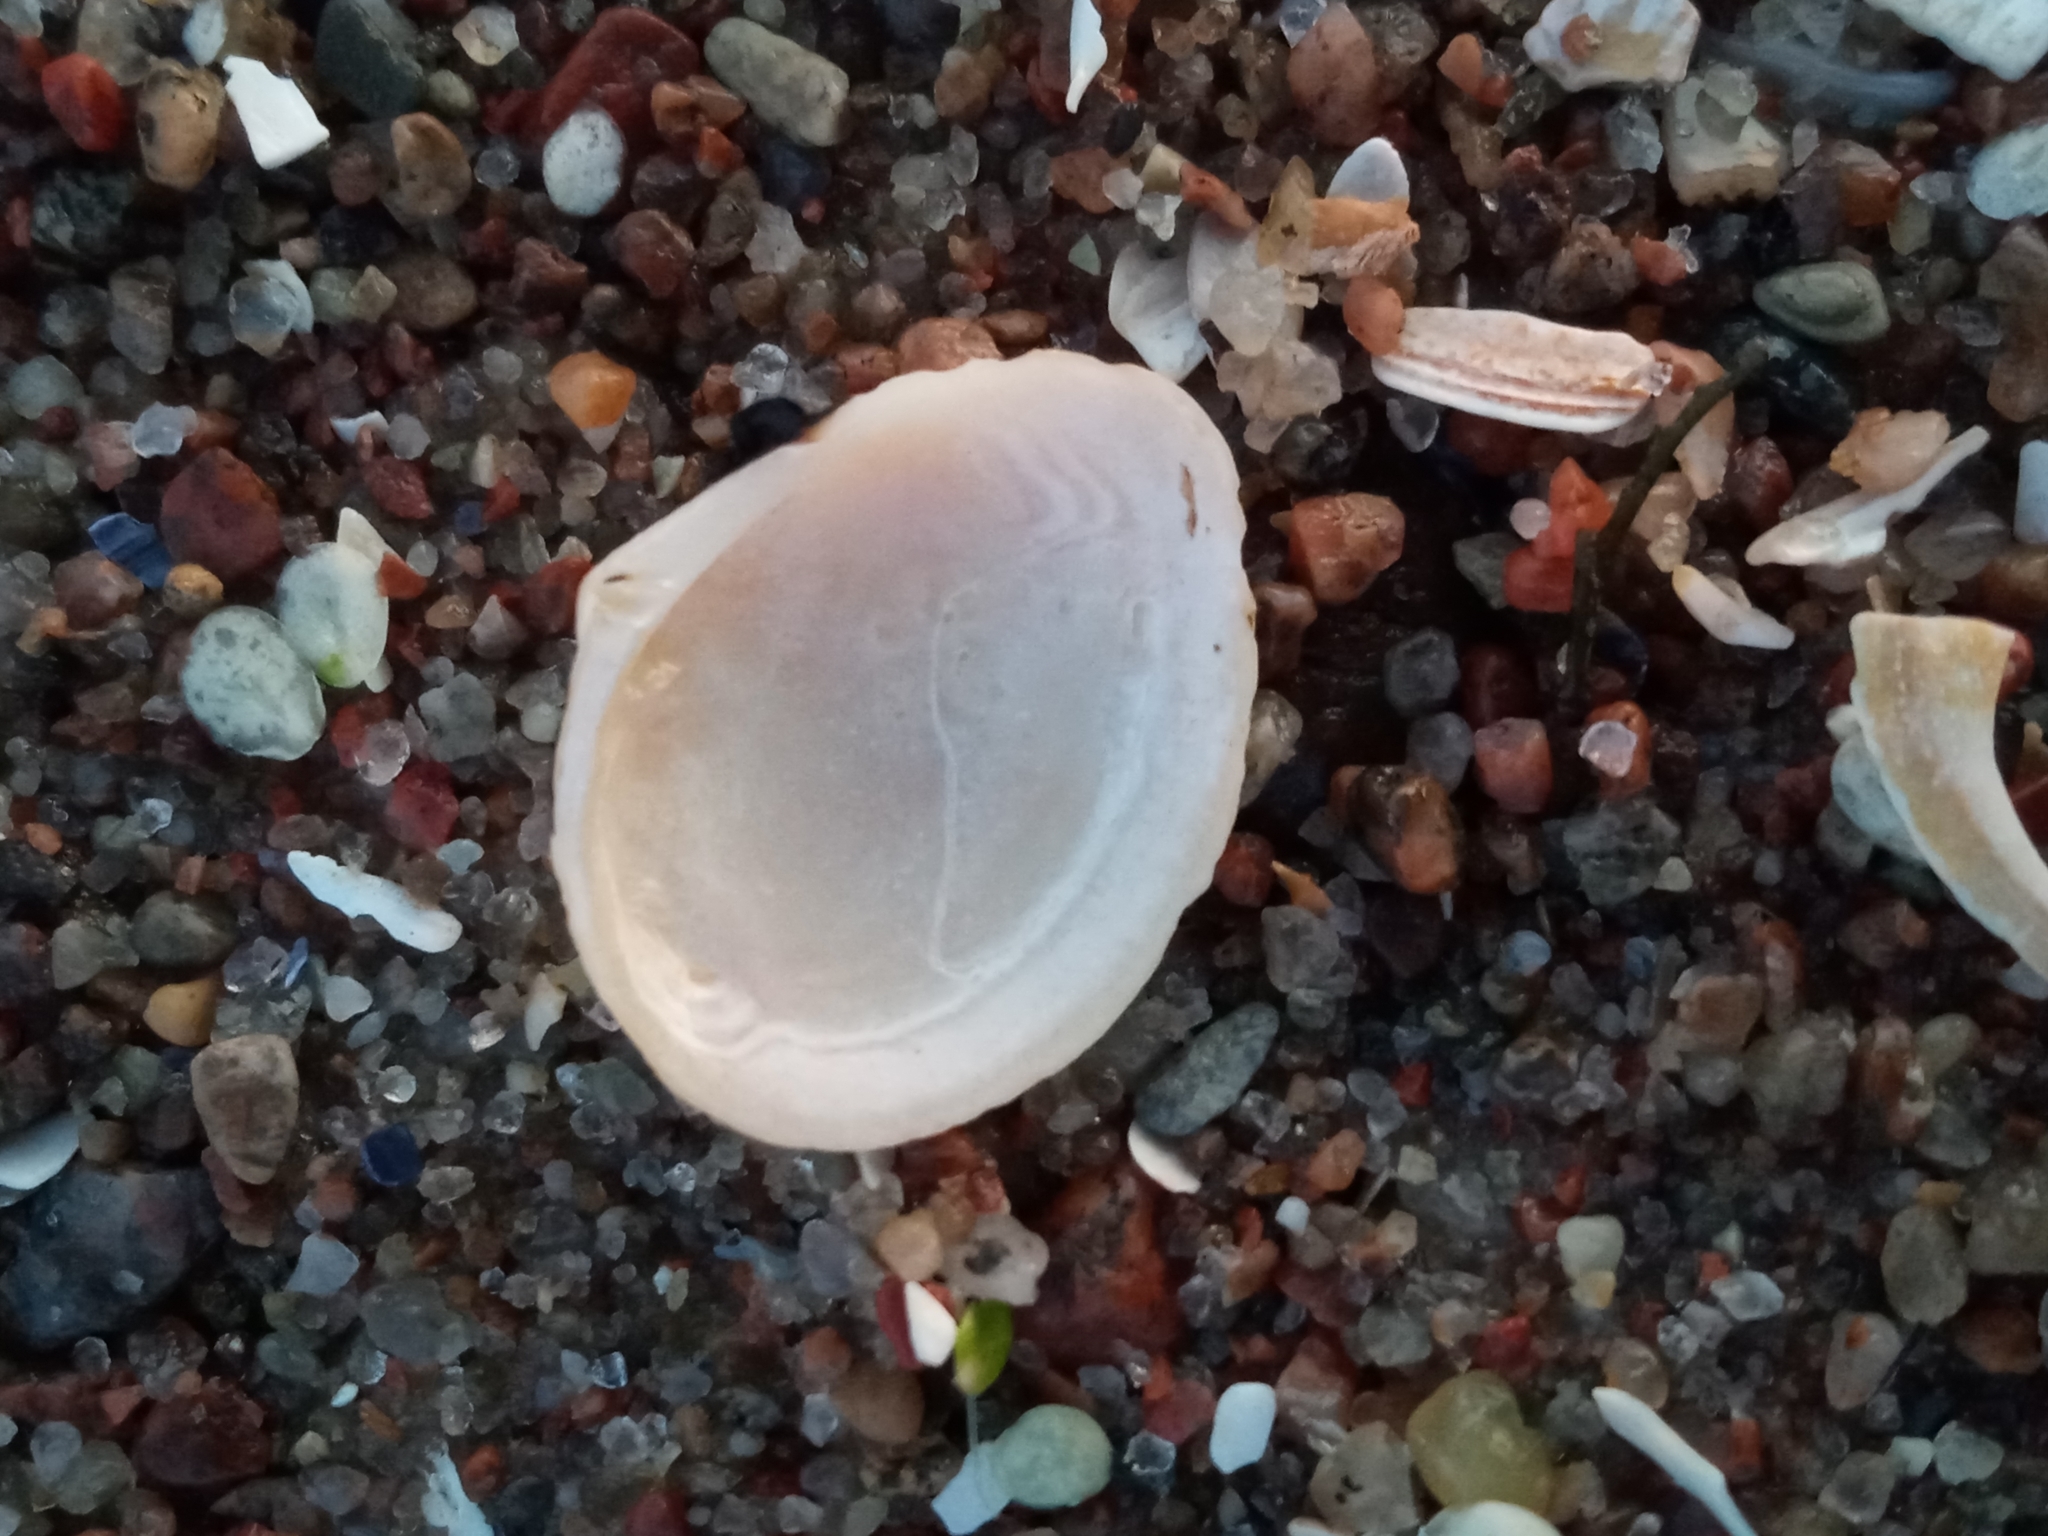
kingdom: Animalia
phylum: Mollusca
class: Bivalvia
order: Cardiida
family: Tellinidae
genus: Macoma
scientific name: Macoma balthica
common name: Baltic tellin
